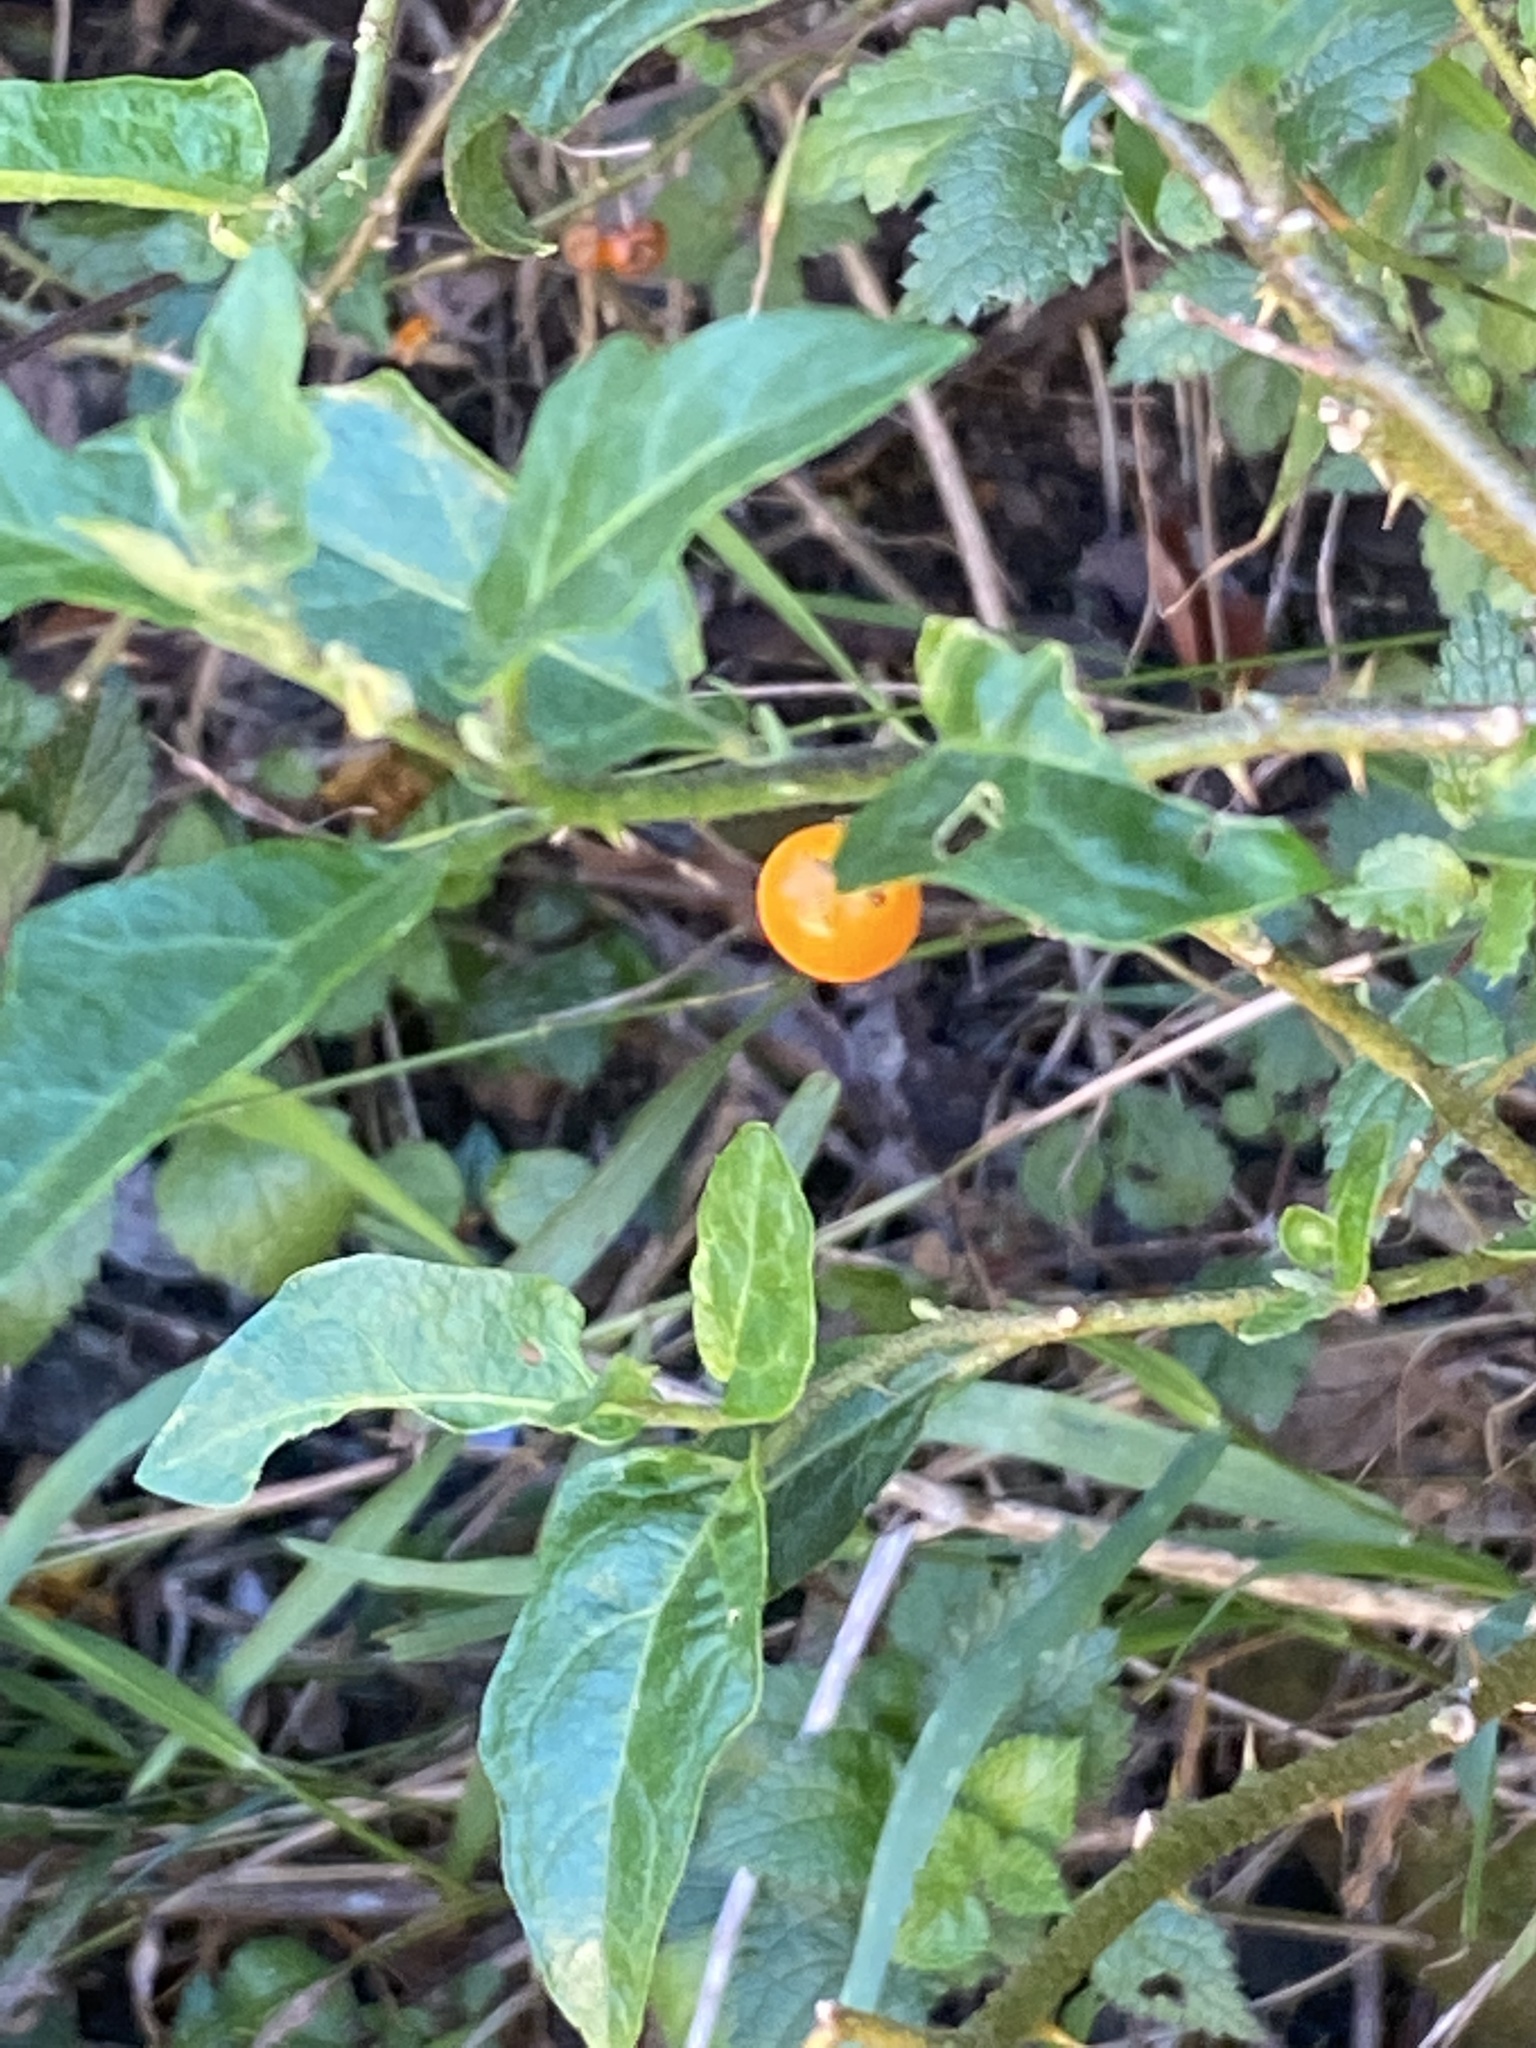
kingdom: Plantae
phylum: Tracheophyta
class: Magnoliopsida
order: Solanales
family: Solanaceae
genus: Solanum
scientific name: Solanum rubetorum
